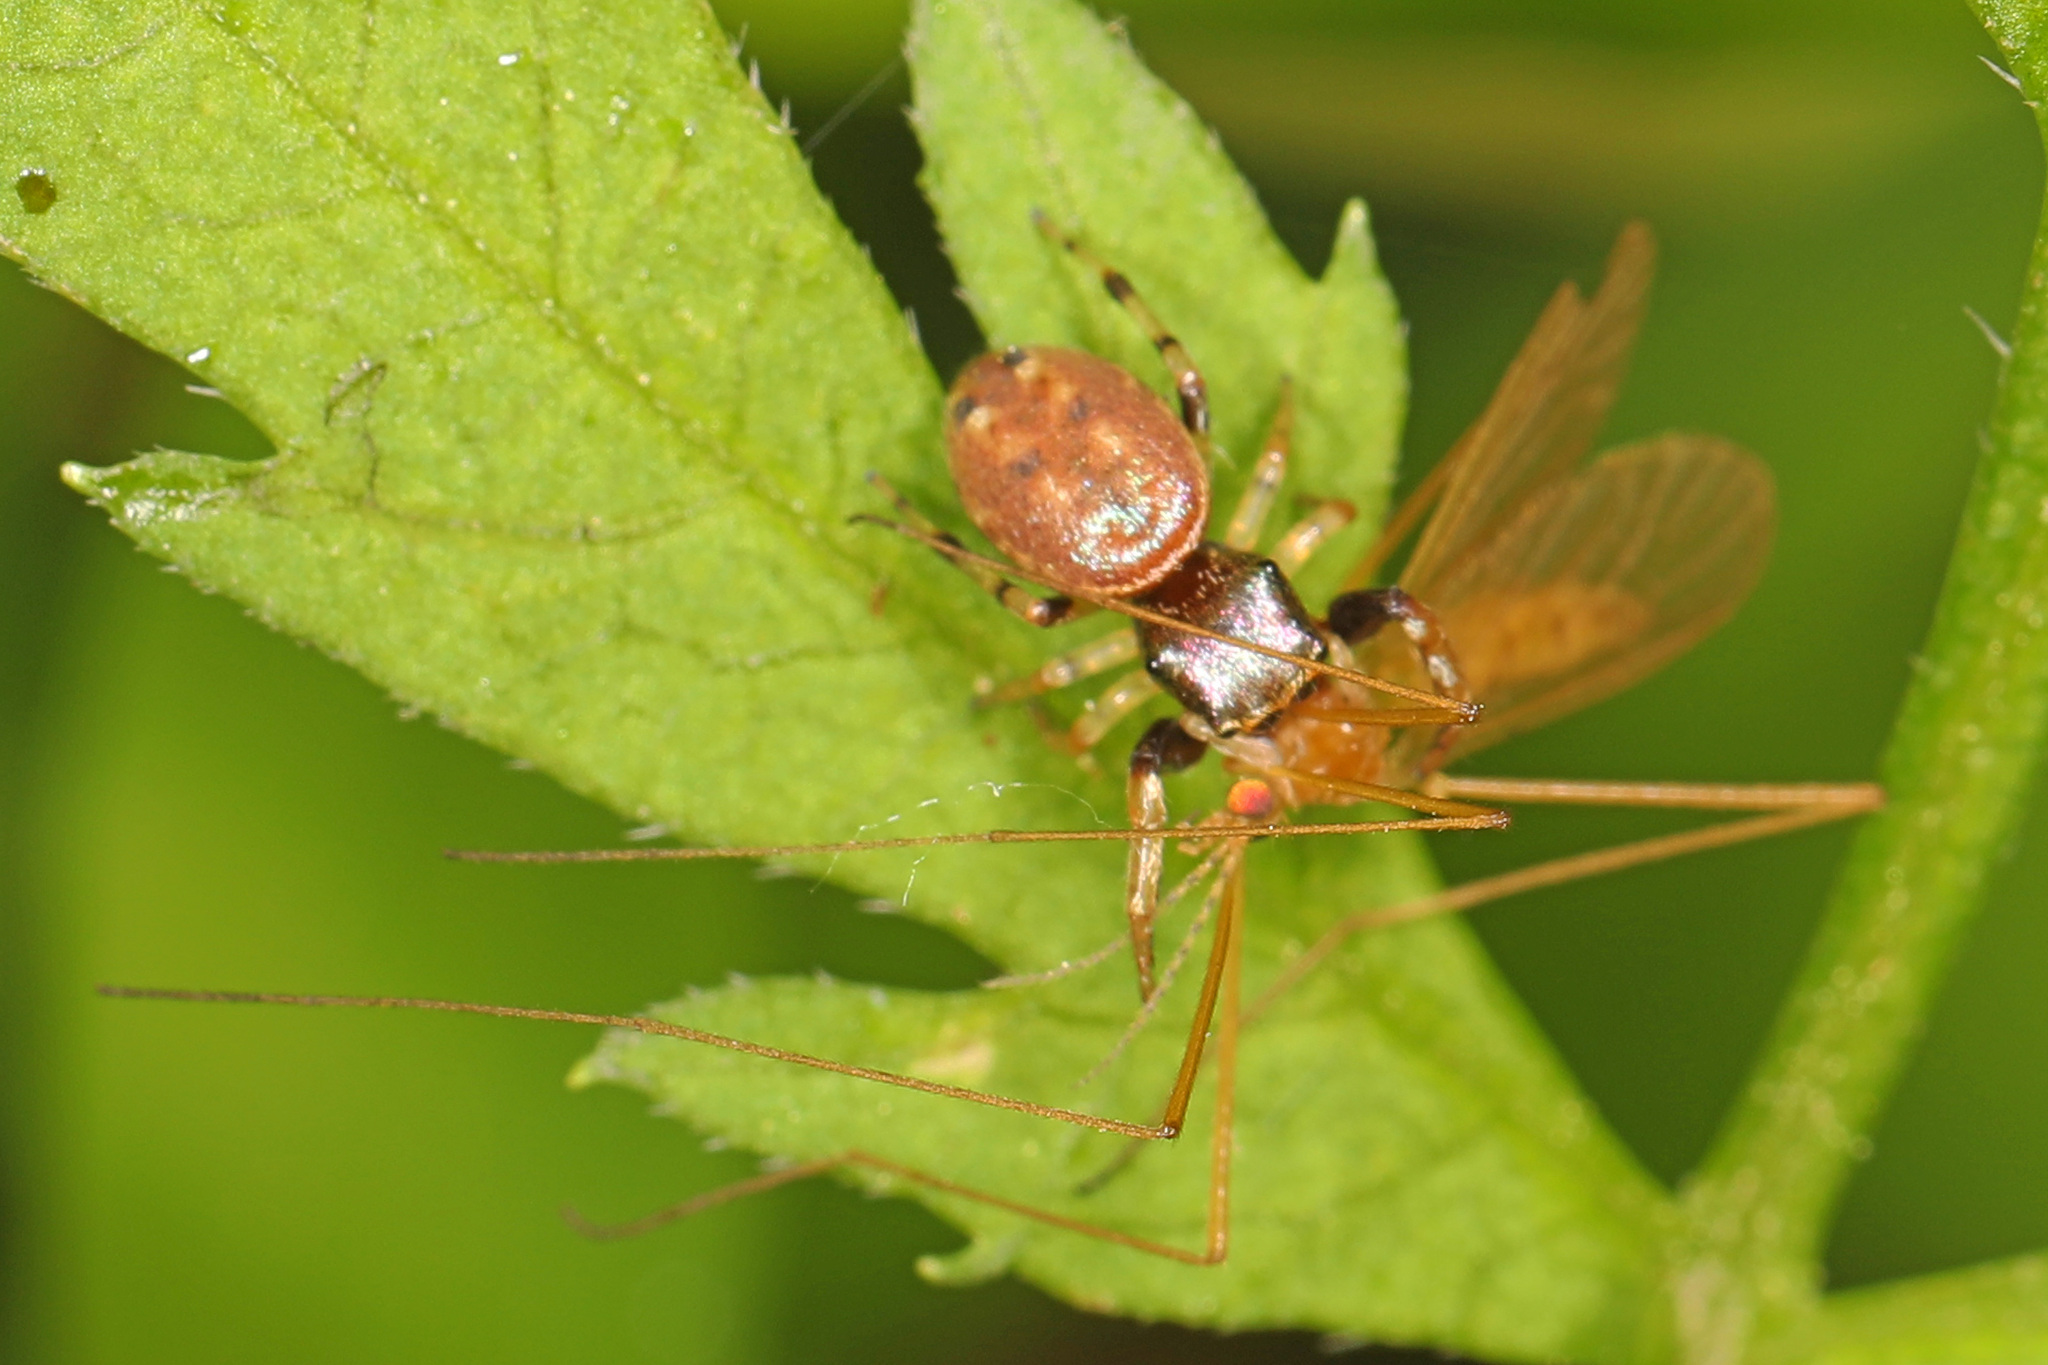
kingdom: Animalia
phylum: Arthropoda
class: Arachnida
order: Araneae
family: Salticidae
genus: Zygoballus
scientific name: Zygoballus rufipes
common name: Jumping spiders
